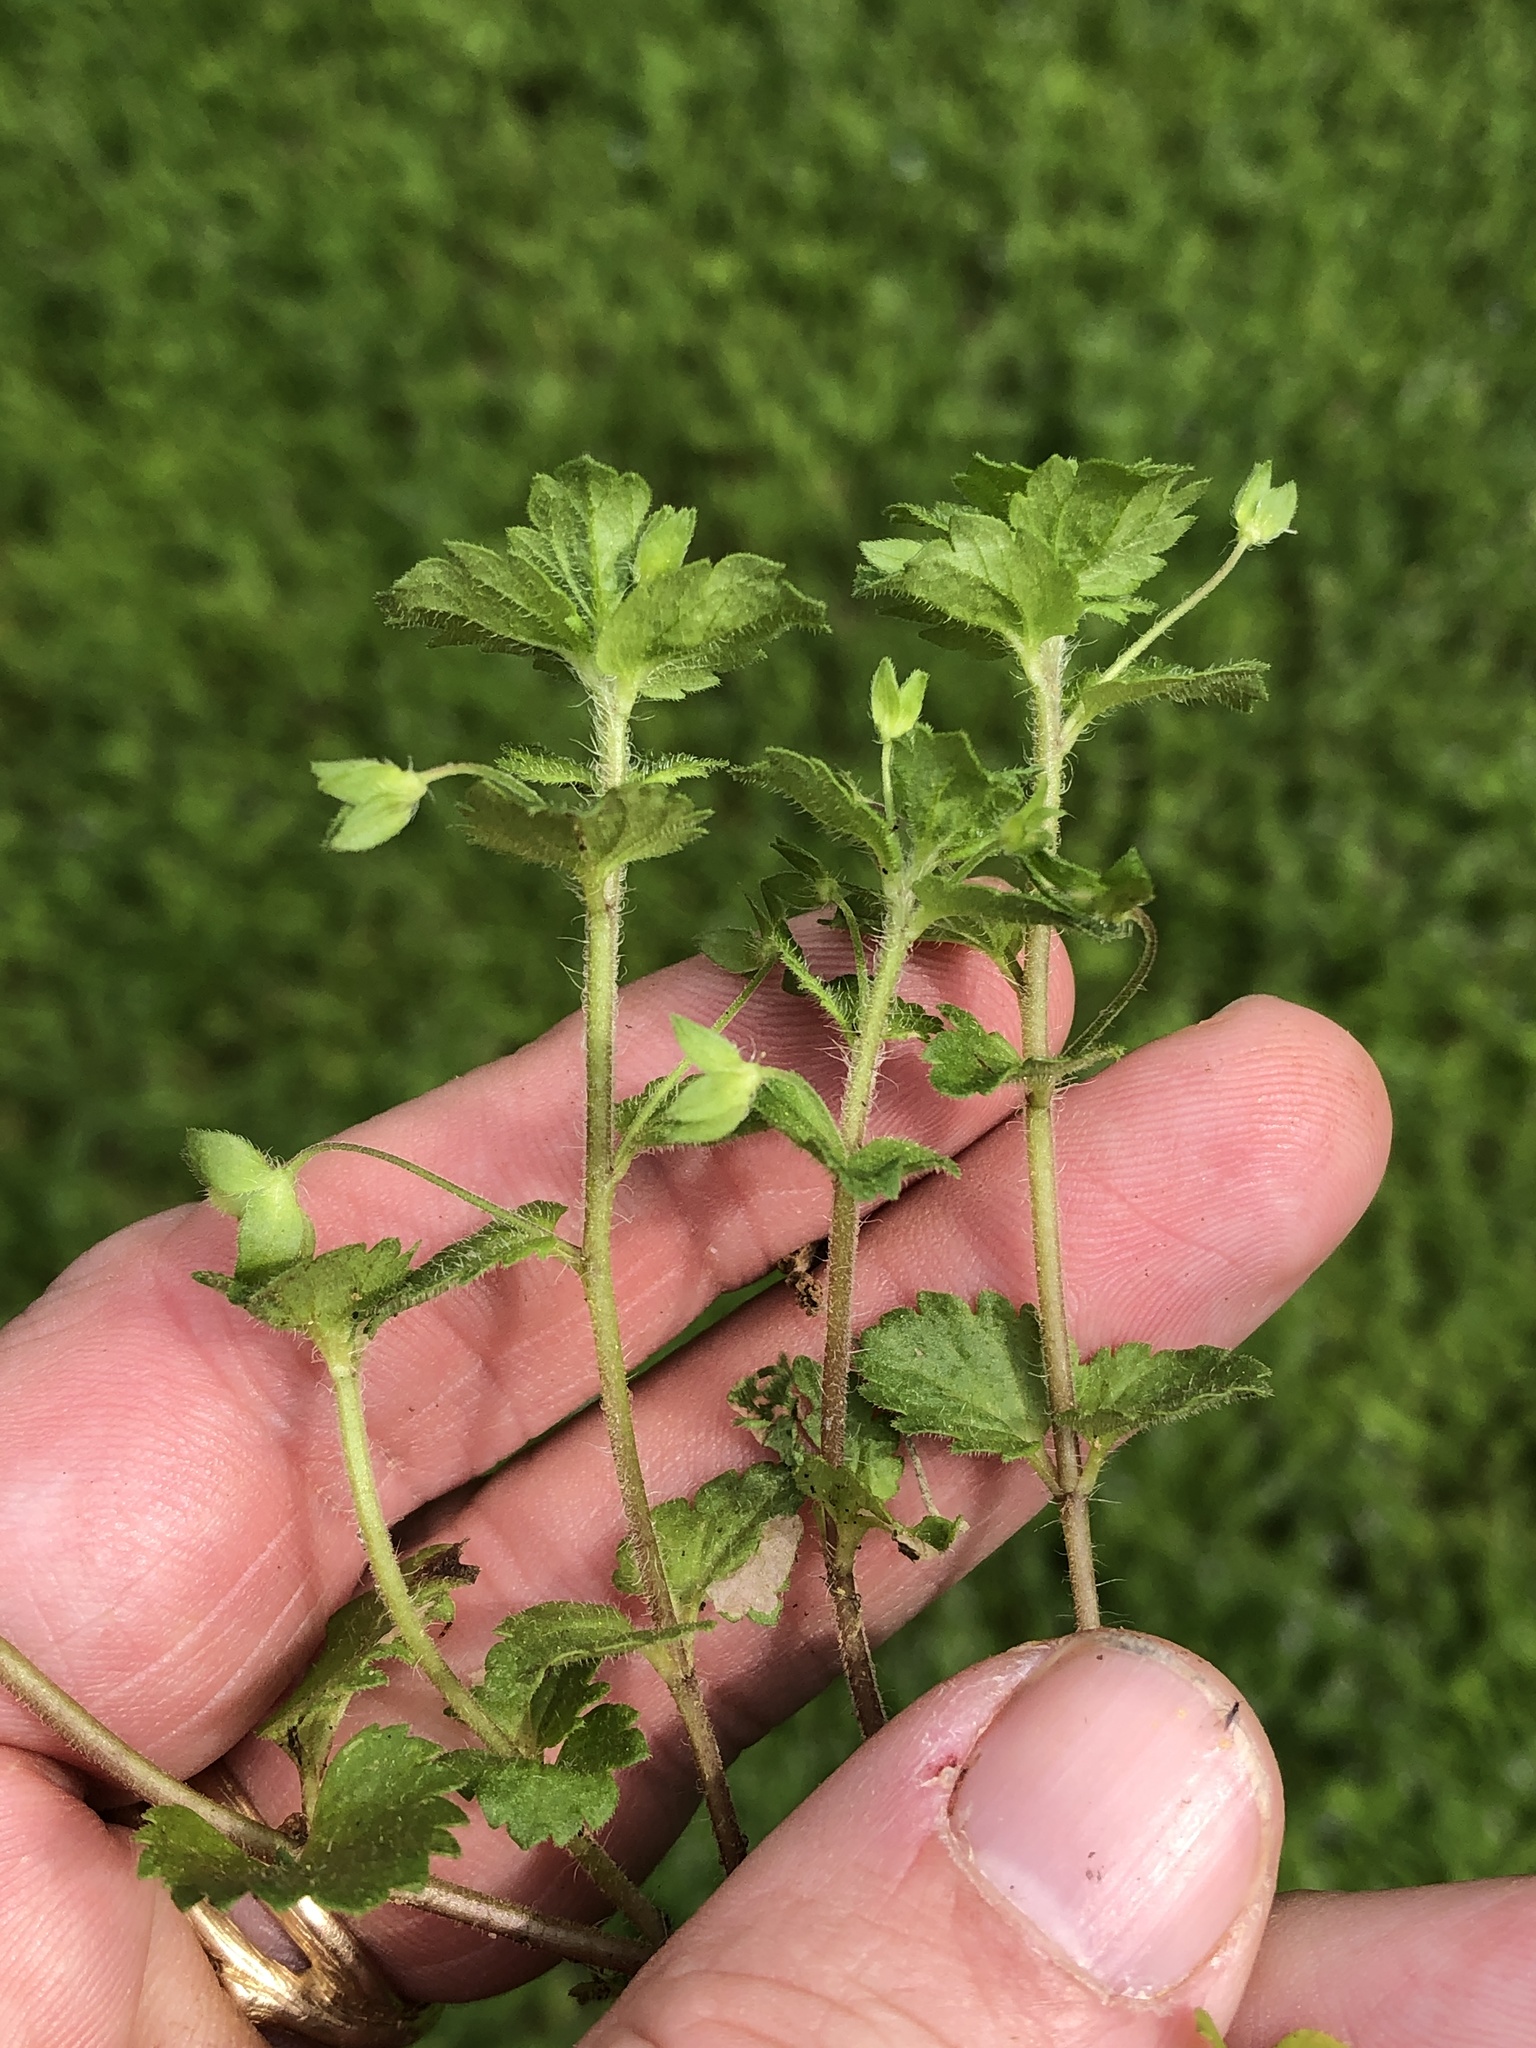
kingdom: Plantae
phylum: Tracheophyta
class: Magnoliopsida
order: Lamiales
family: Plantaginaceae
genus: Veronica
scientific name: Veronica persica
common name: Common field-speedwell
